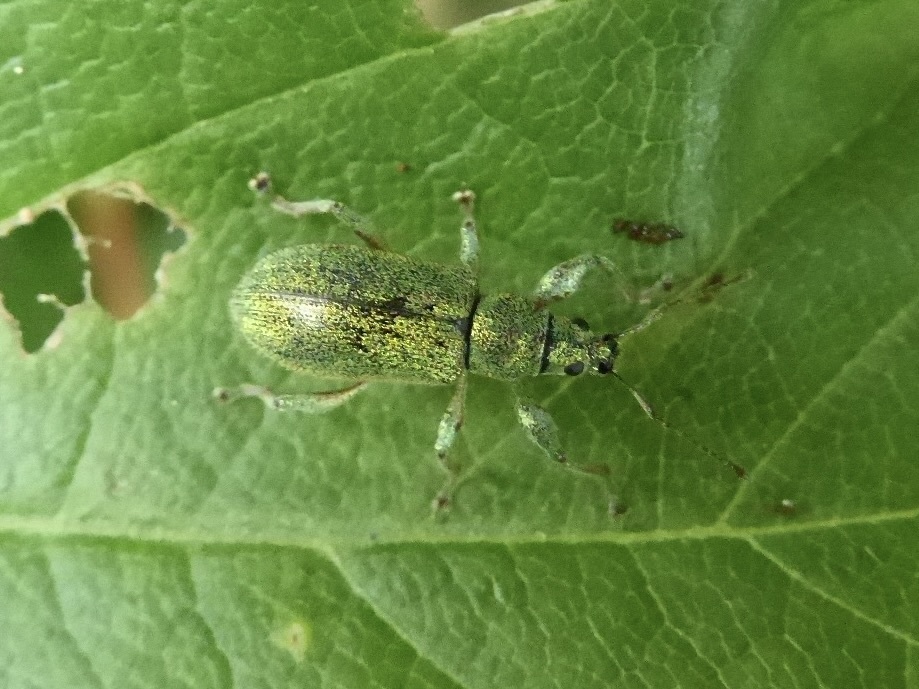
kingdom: Animalia
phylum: Arthropoda
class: Insecta
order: Coleoptera
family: Curculionidae
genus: Phyllobius
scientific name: Phyllobius arborator
